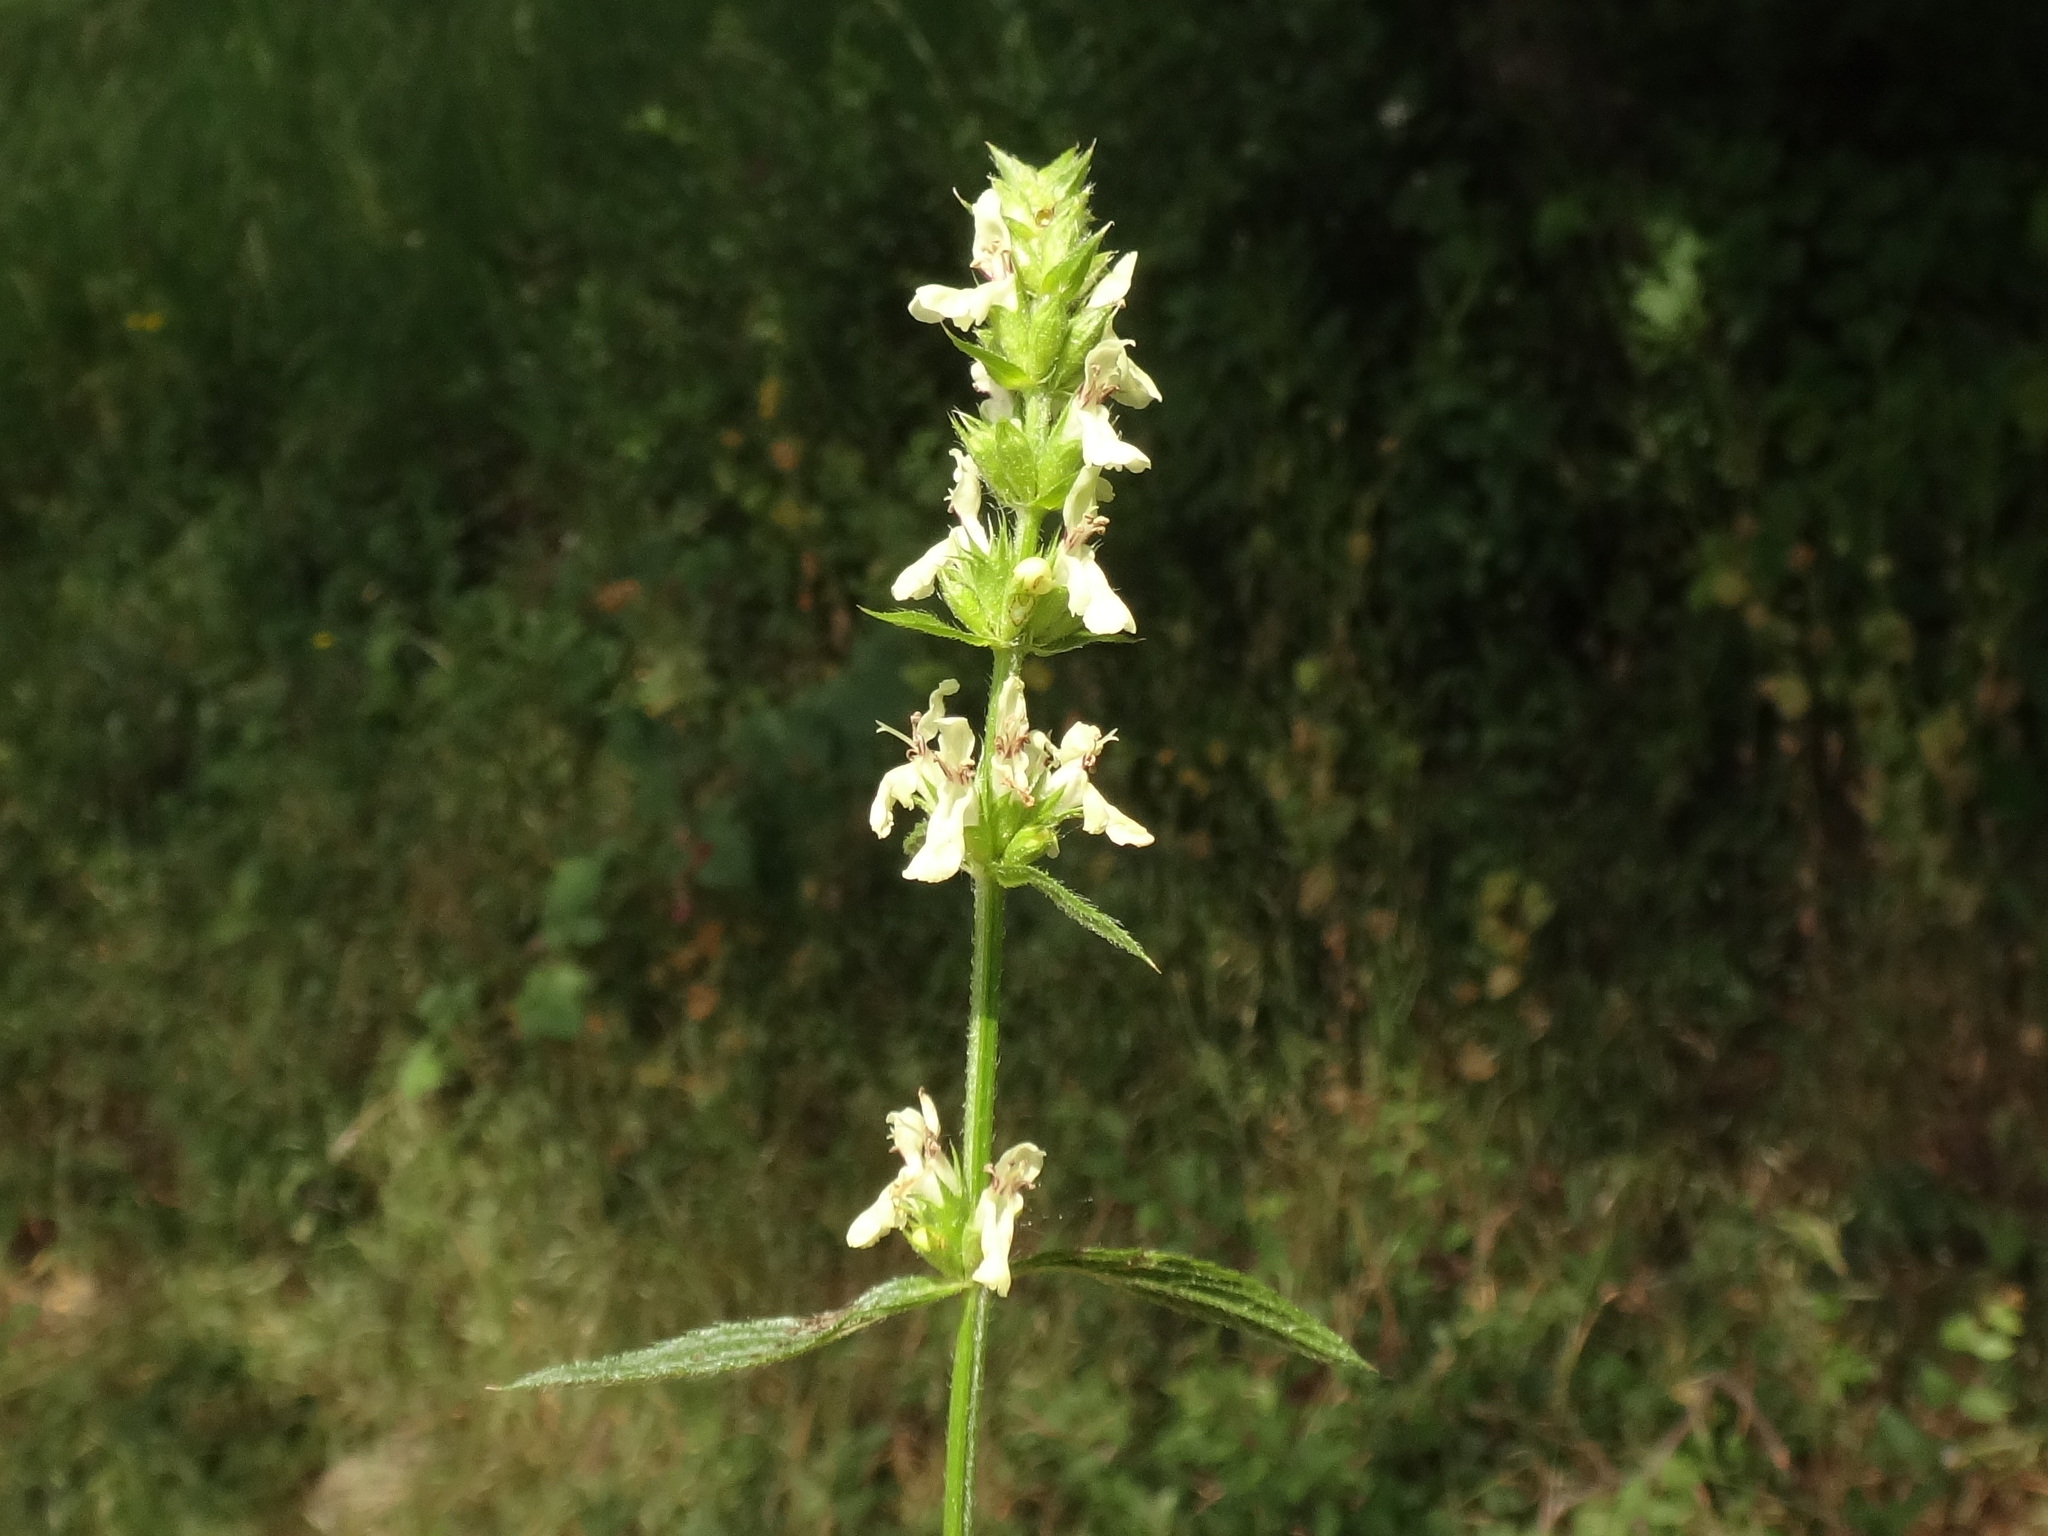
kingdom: Plantae
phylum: Tracheophyta
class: Magnoliopsida
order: Lamiales
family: Lamiaceae
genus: Stachys
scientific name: Stachys recta
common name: Perennial yellow-woundwort
